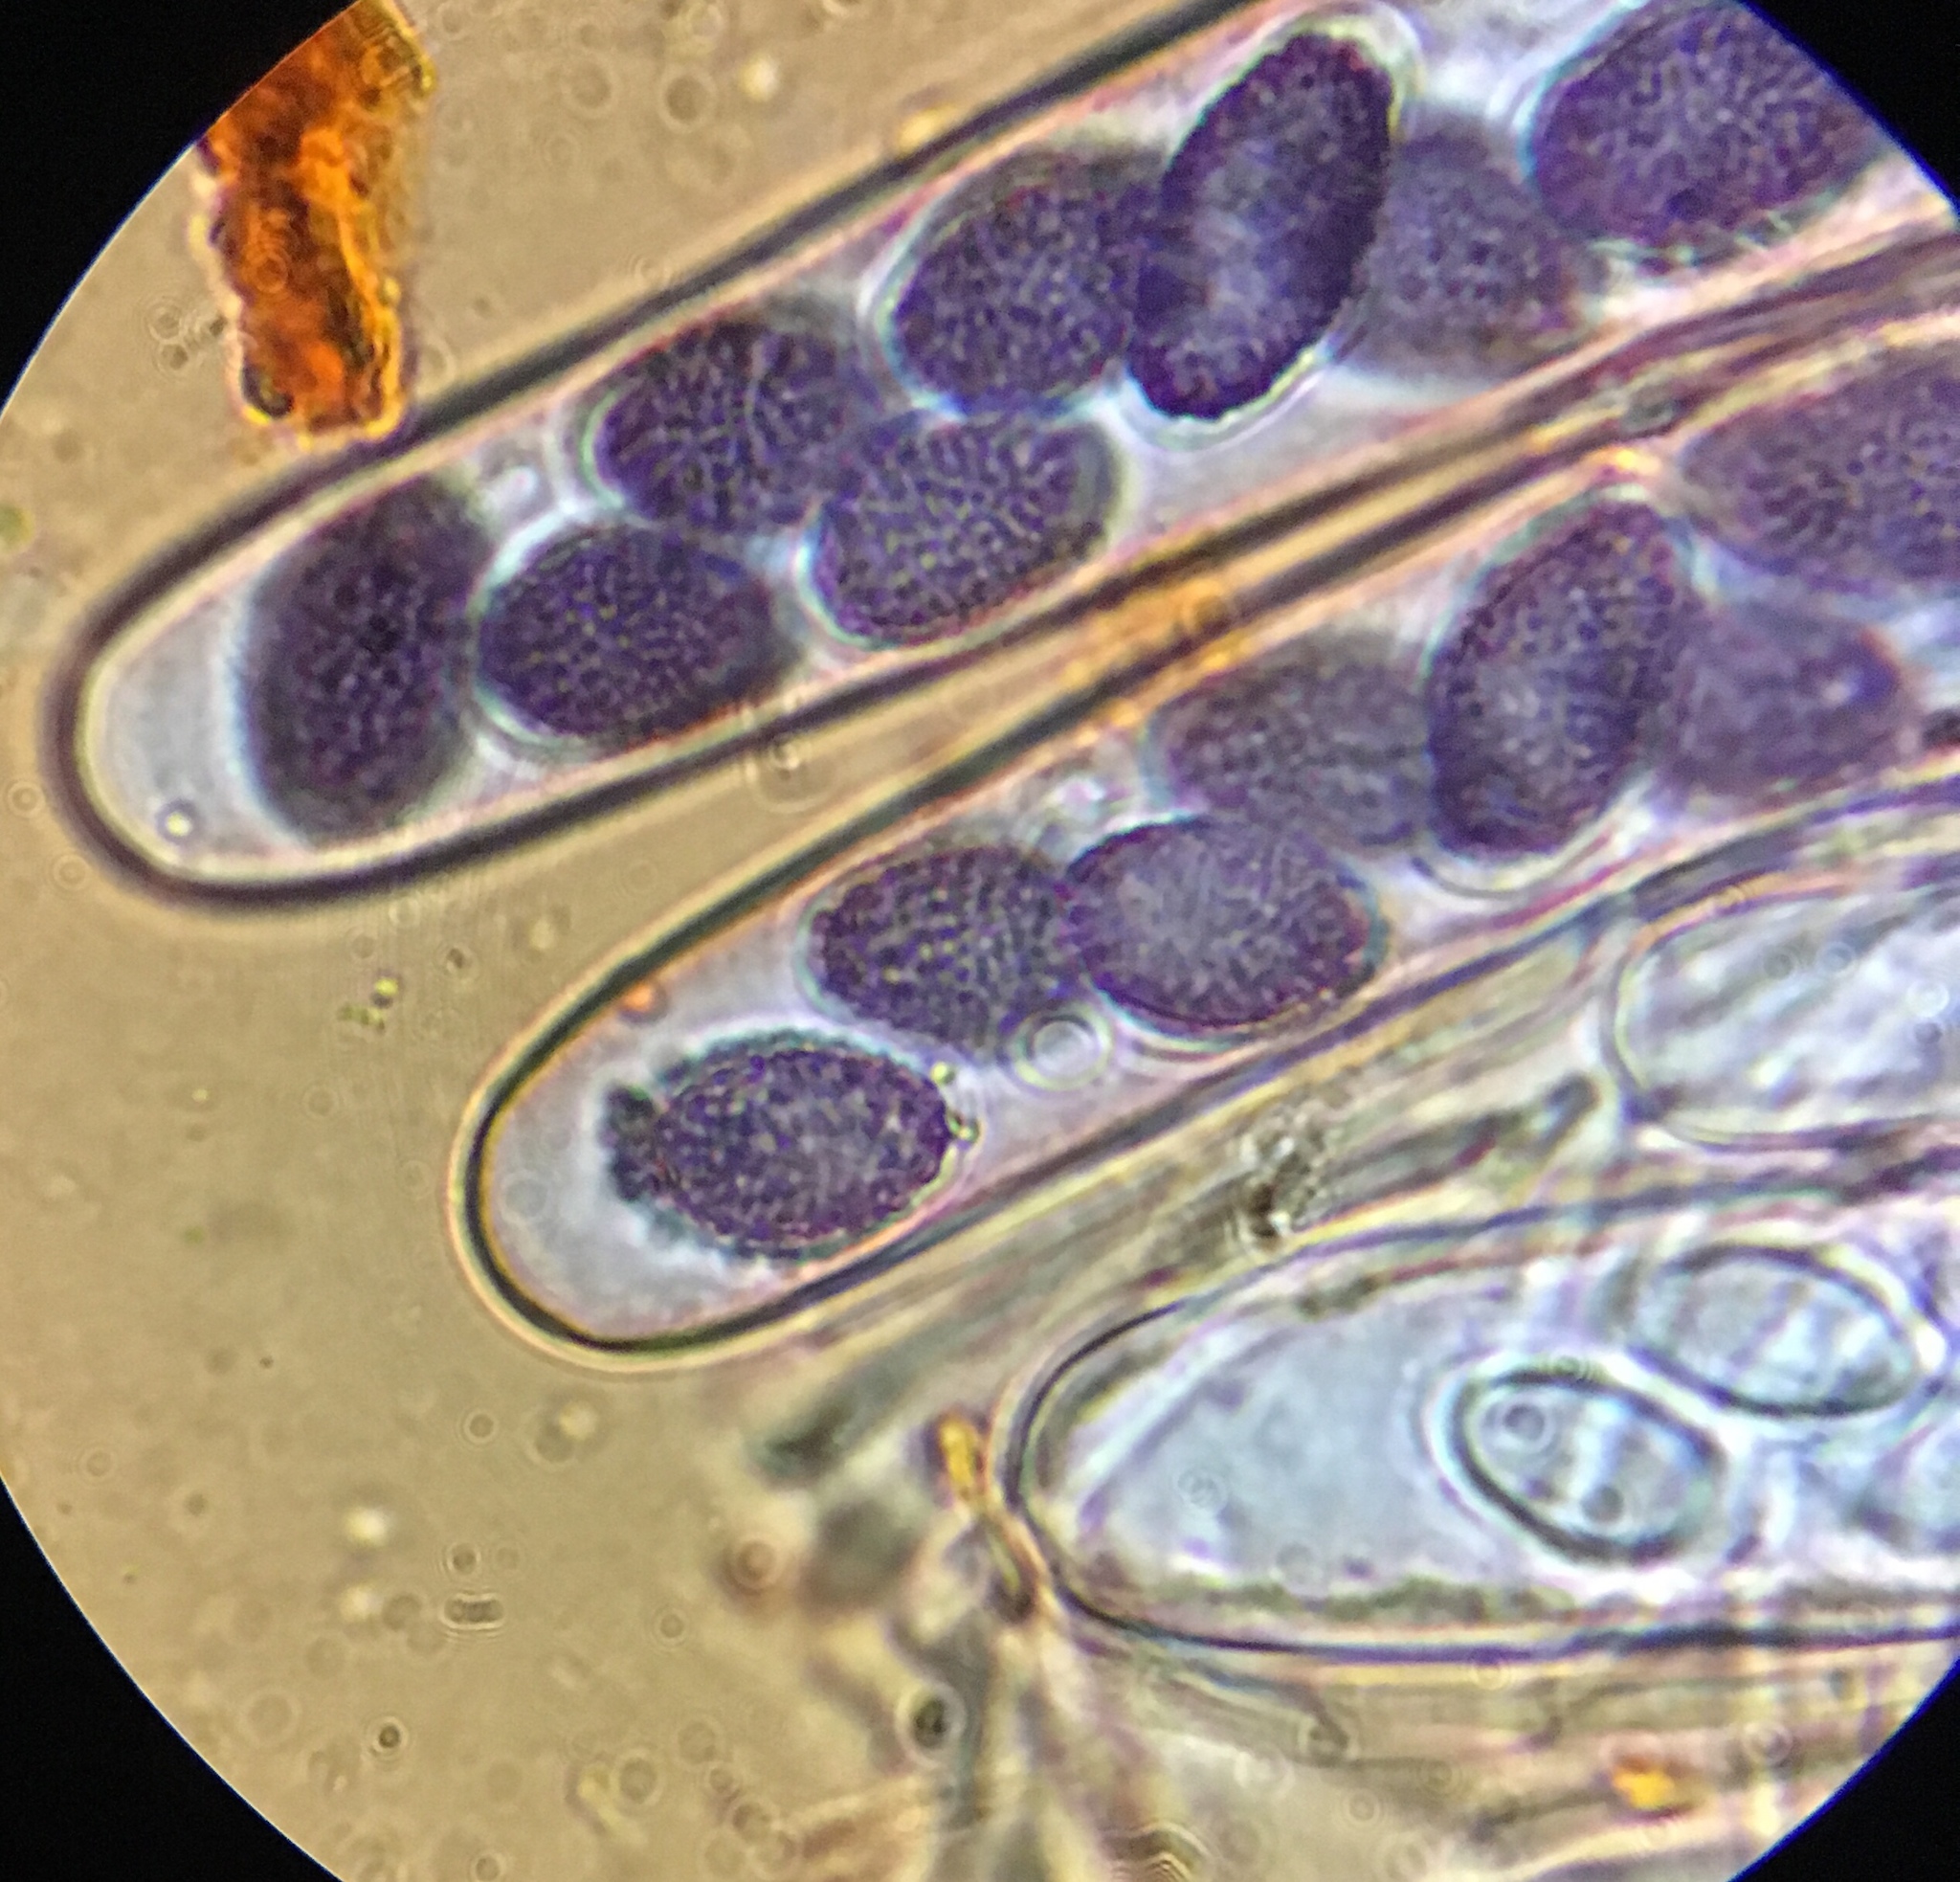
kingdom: Fungi
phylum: Ascomycota
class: Pezizomycetes
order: Pezizales
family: Ascobolaceae
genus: Ascobolus
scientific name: Ascobolus hawaiiensis
